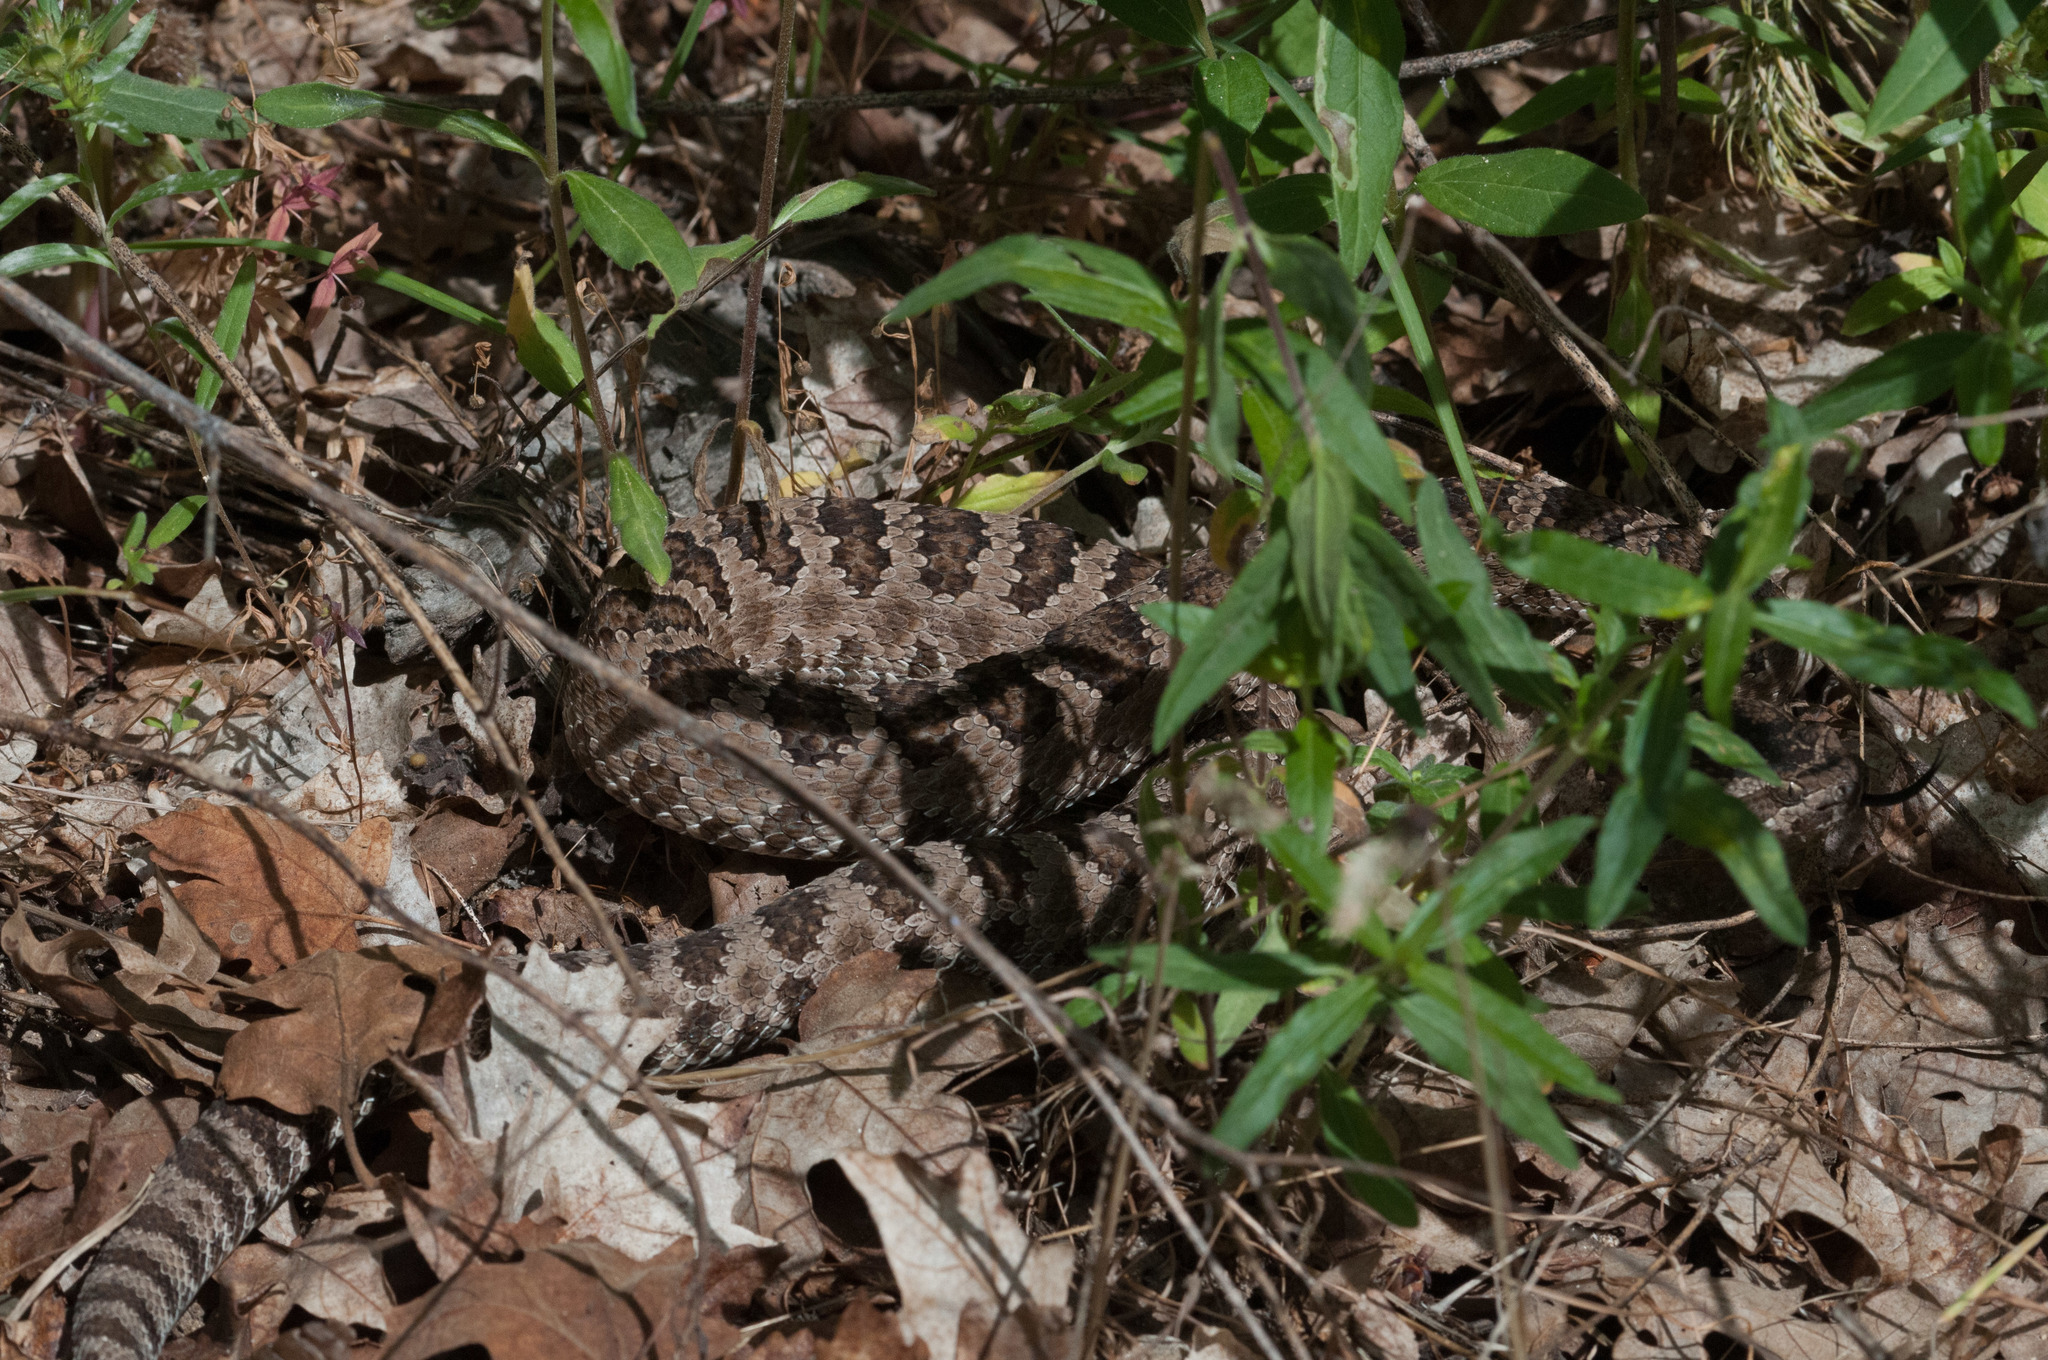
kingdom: Animalia
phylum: Chordata
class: Squamata
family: Viperidae
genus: Crotalus
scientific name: Crotalus oreganus
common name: Abyssus
